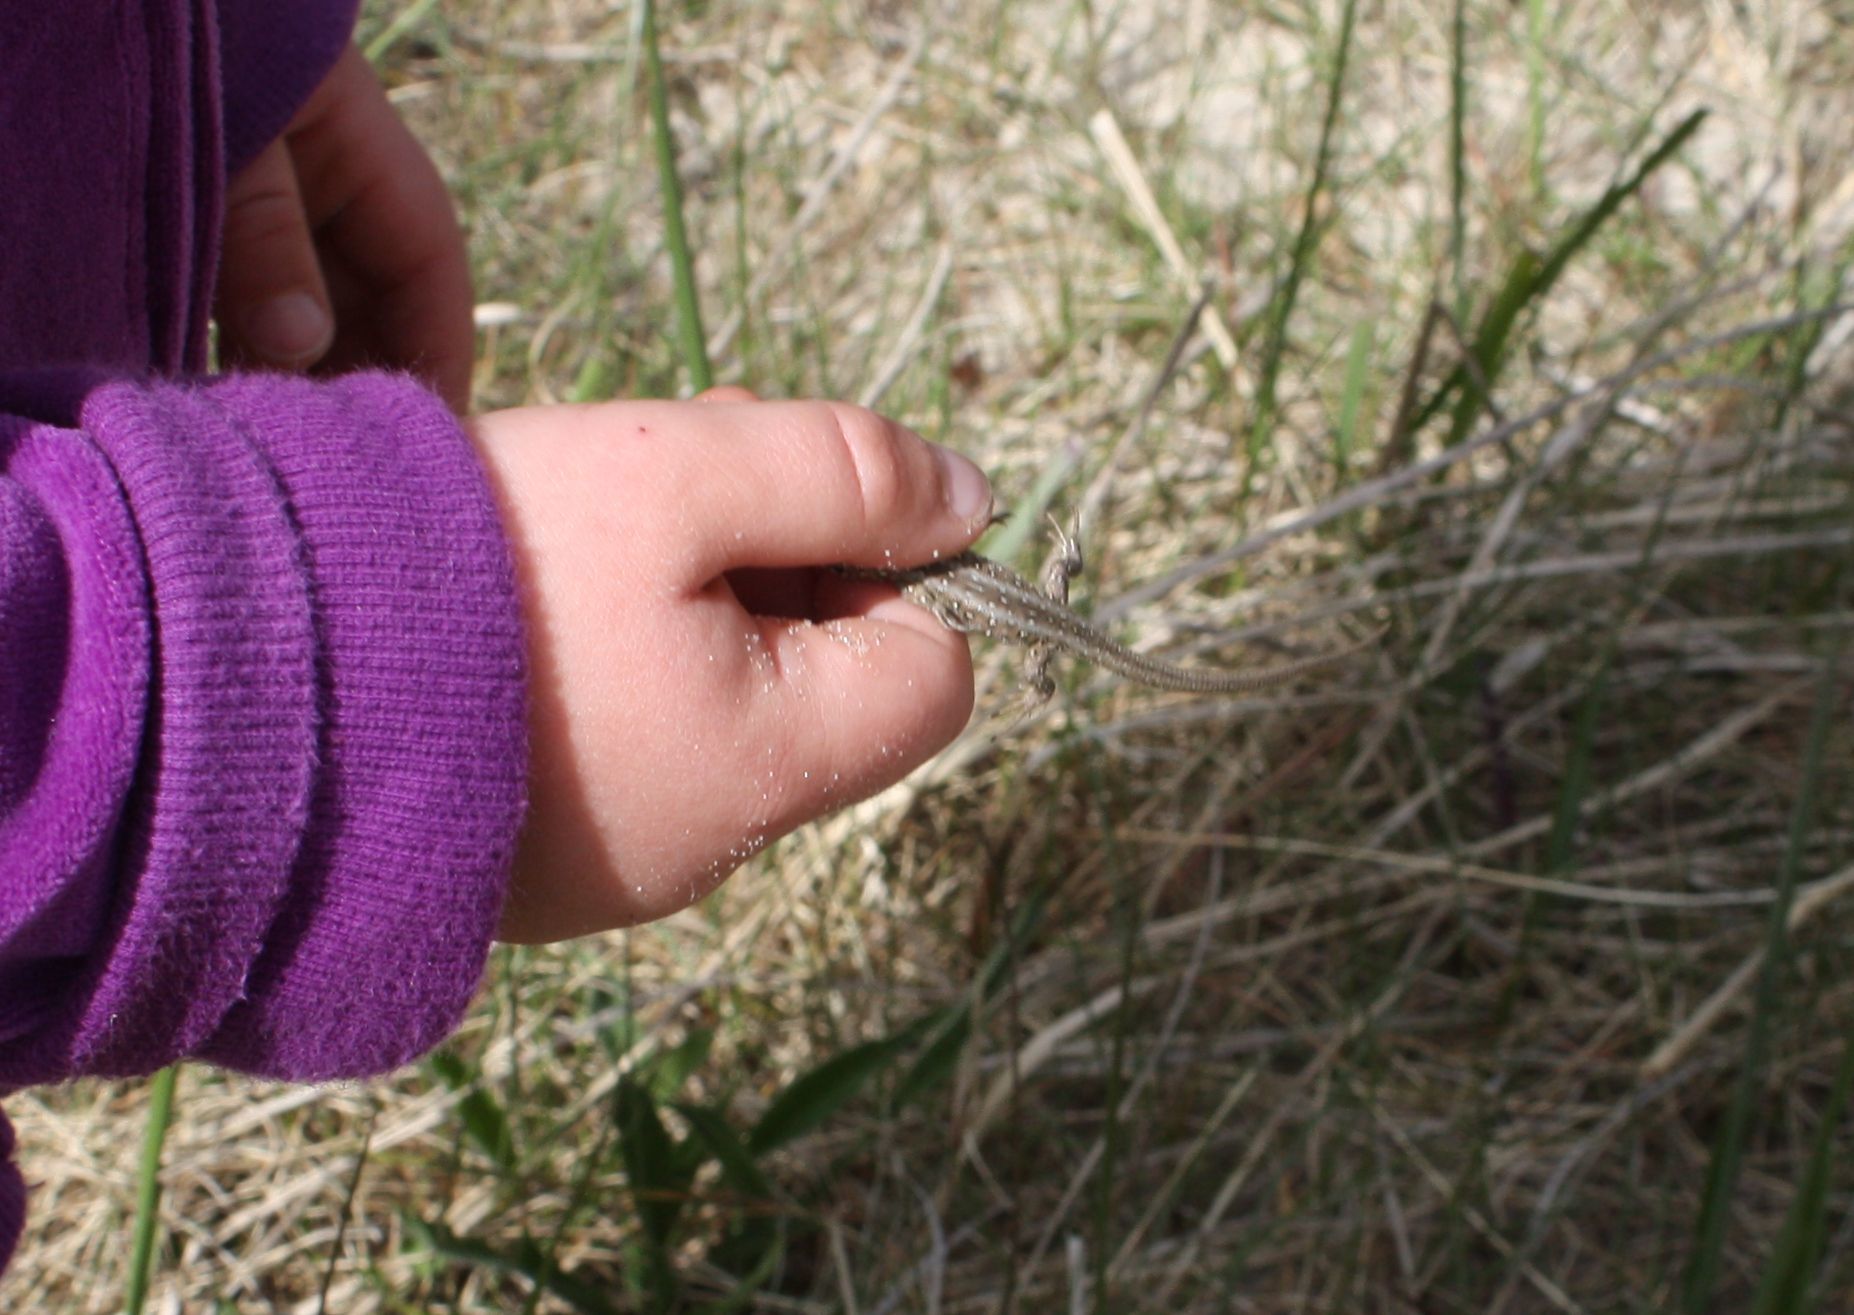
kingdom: Animalia
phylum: Chordata
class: Squamata
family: Lacertidae
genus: Lacerta
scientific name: Lacerta agilis
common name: Sand lizard
